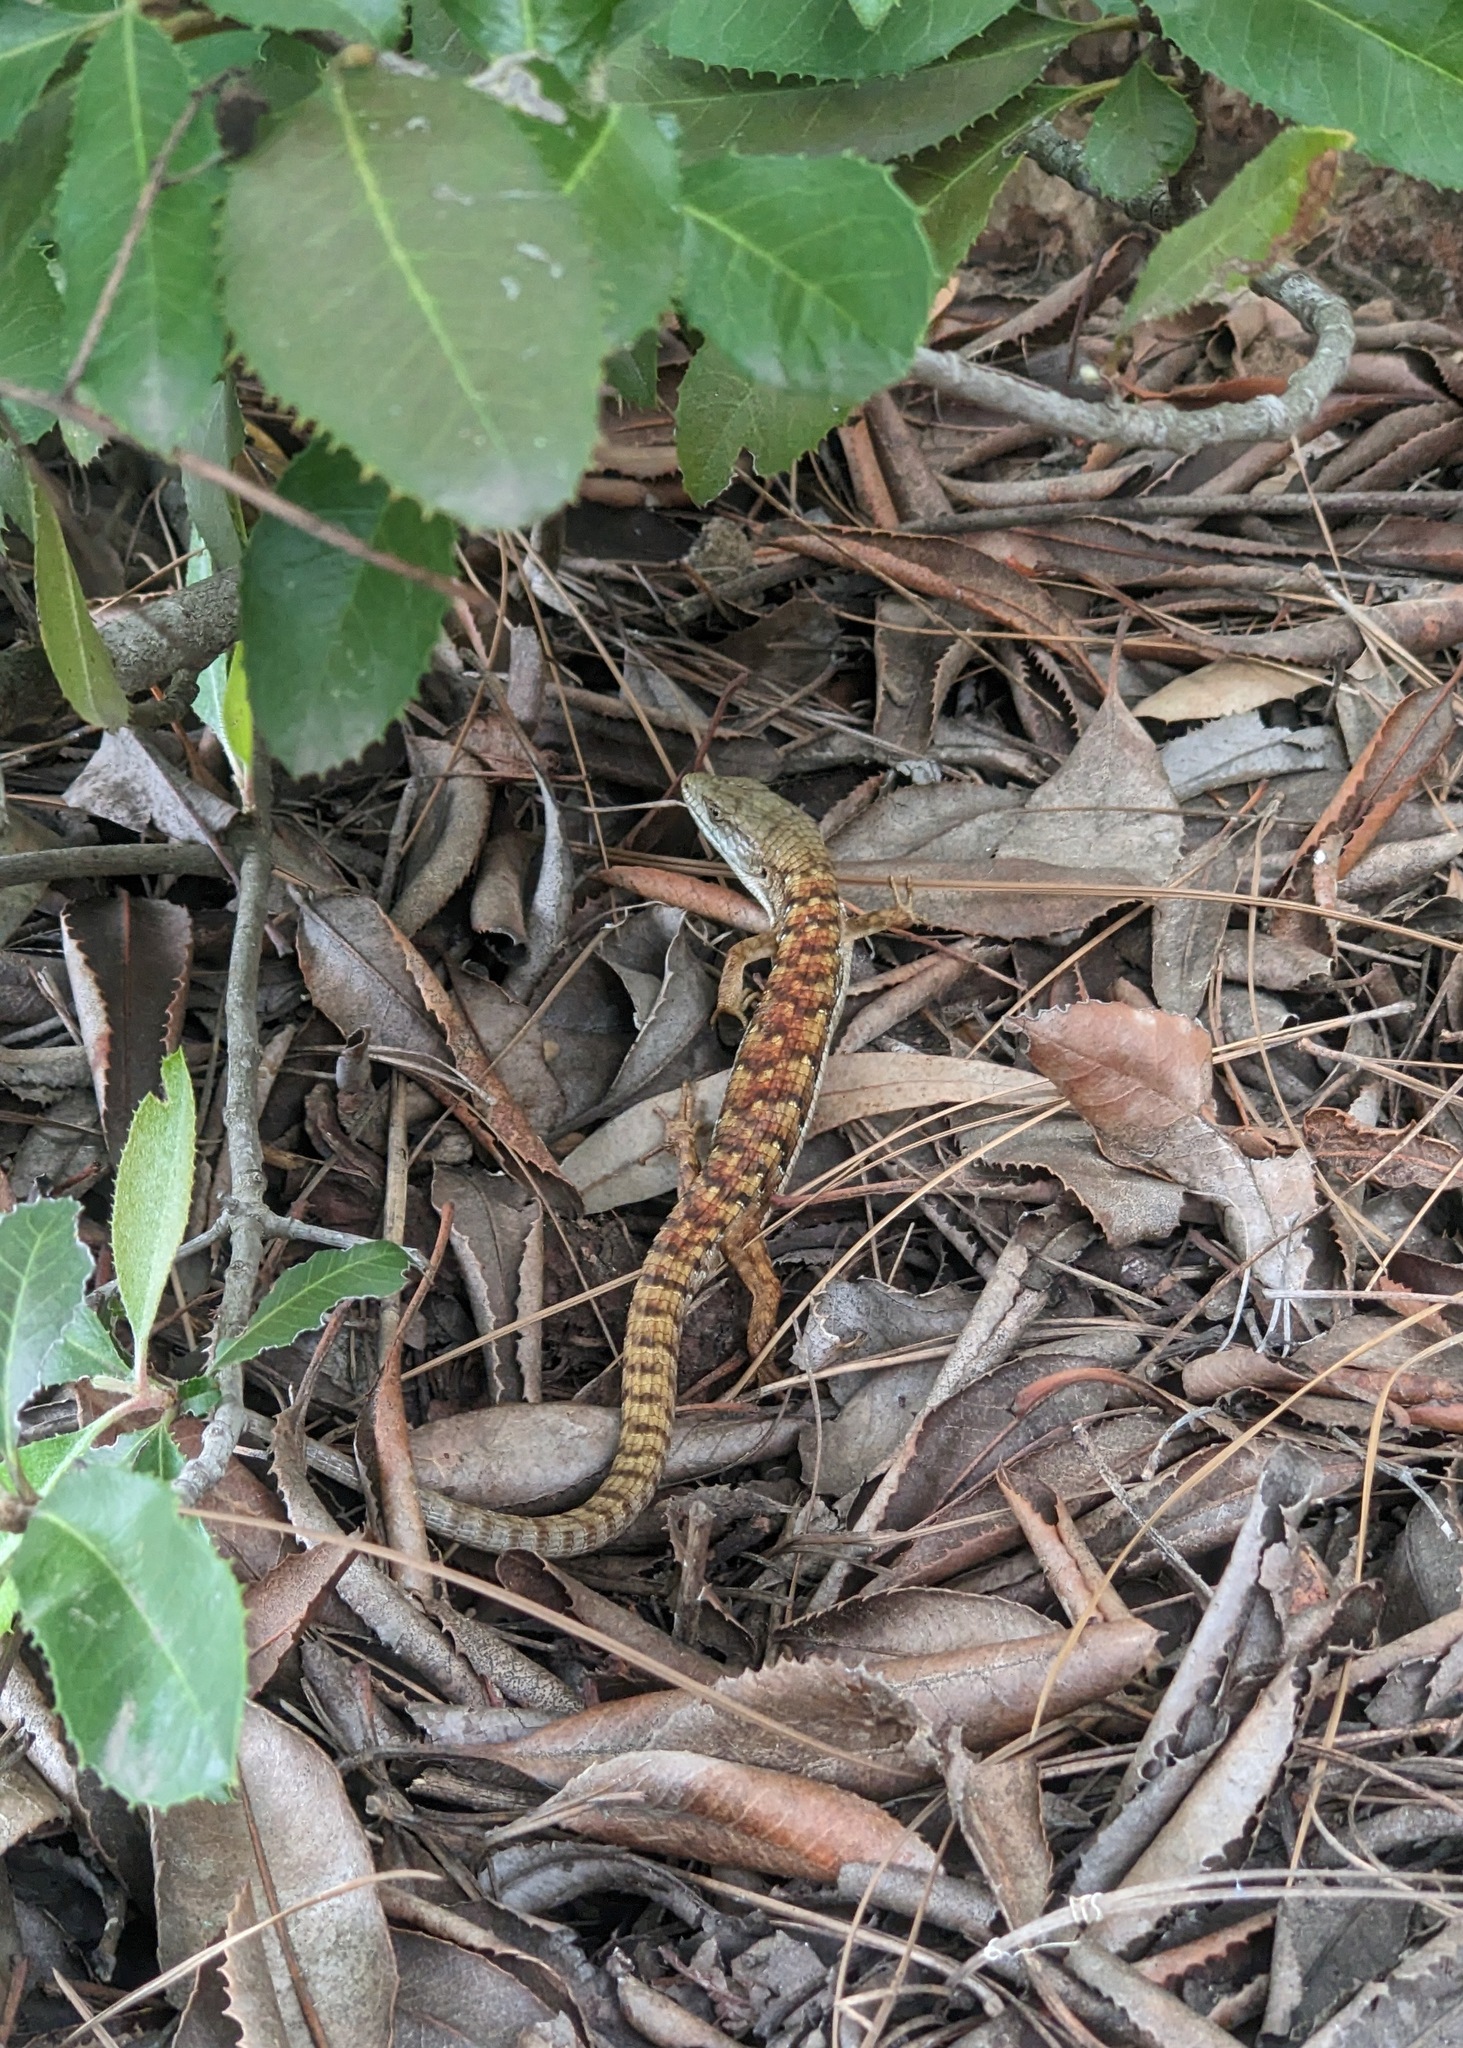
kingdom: Animalia
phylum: Chordata
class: Squamata
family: Anguidae
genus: Elgaria
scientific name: Elgaria multicarinata
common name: Southern alligator lizard
